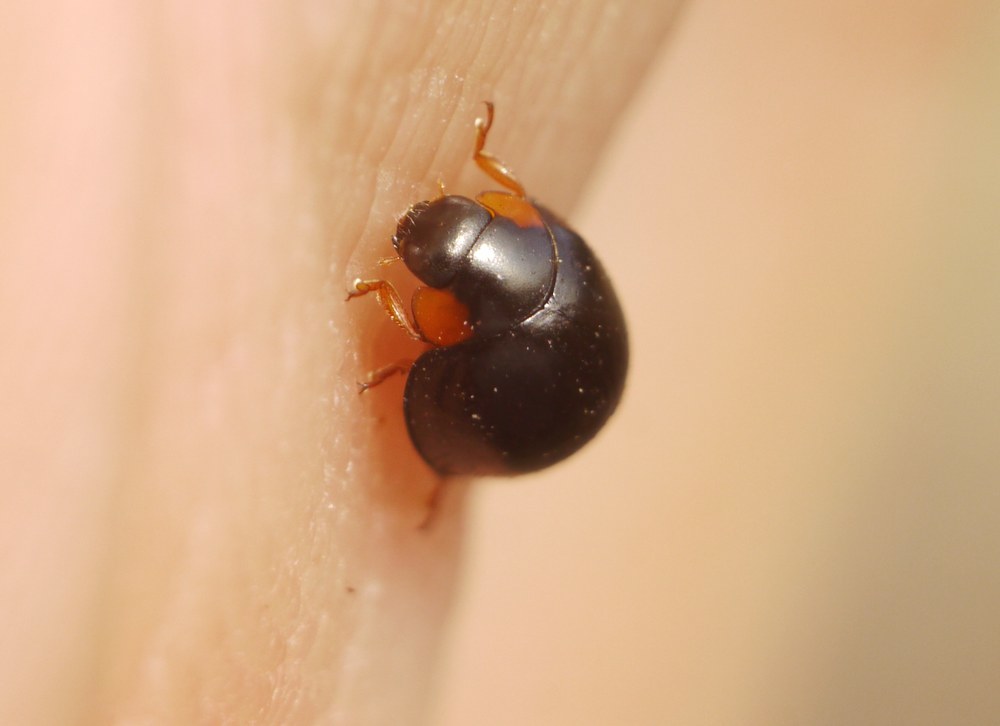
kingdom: Animalia
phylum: Arthropoda
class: Insecta
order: Coleoptera
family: Coccinellidae
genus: Parexochomus
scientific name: Parexochomus nigromaculatus
